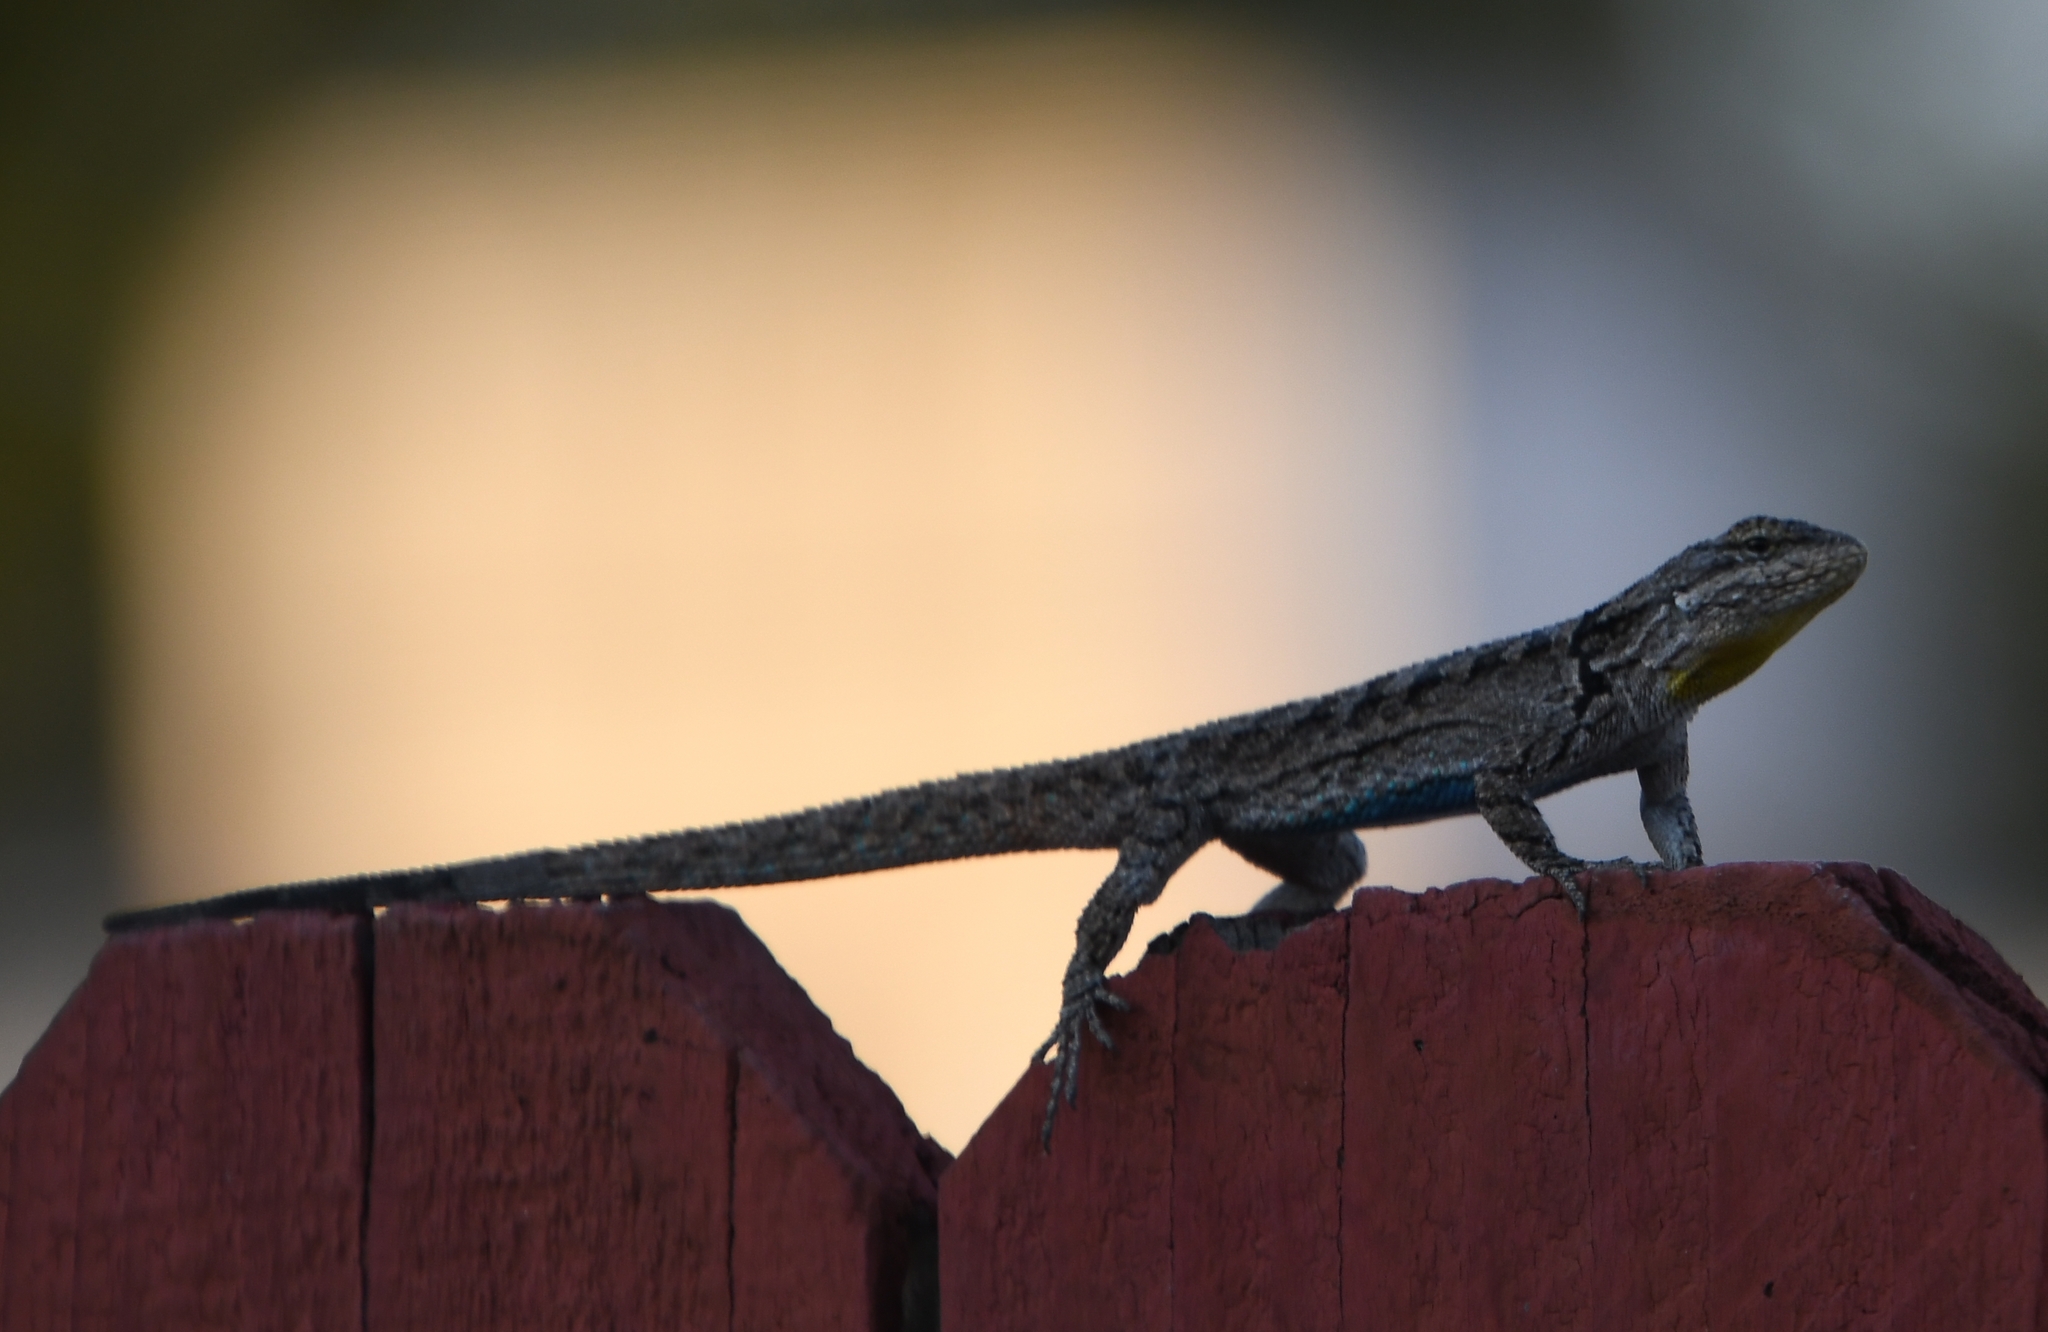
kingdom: Animalia
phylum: Chordata
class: Squamata
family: Phrynosomatidae
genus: Urosaurus
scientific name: Urosaurus ornatus
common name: Ornate tree lizard
